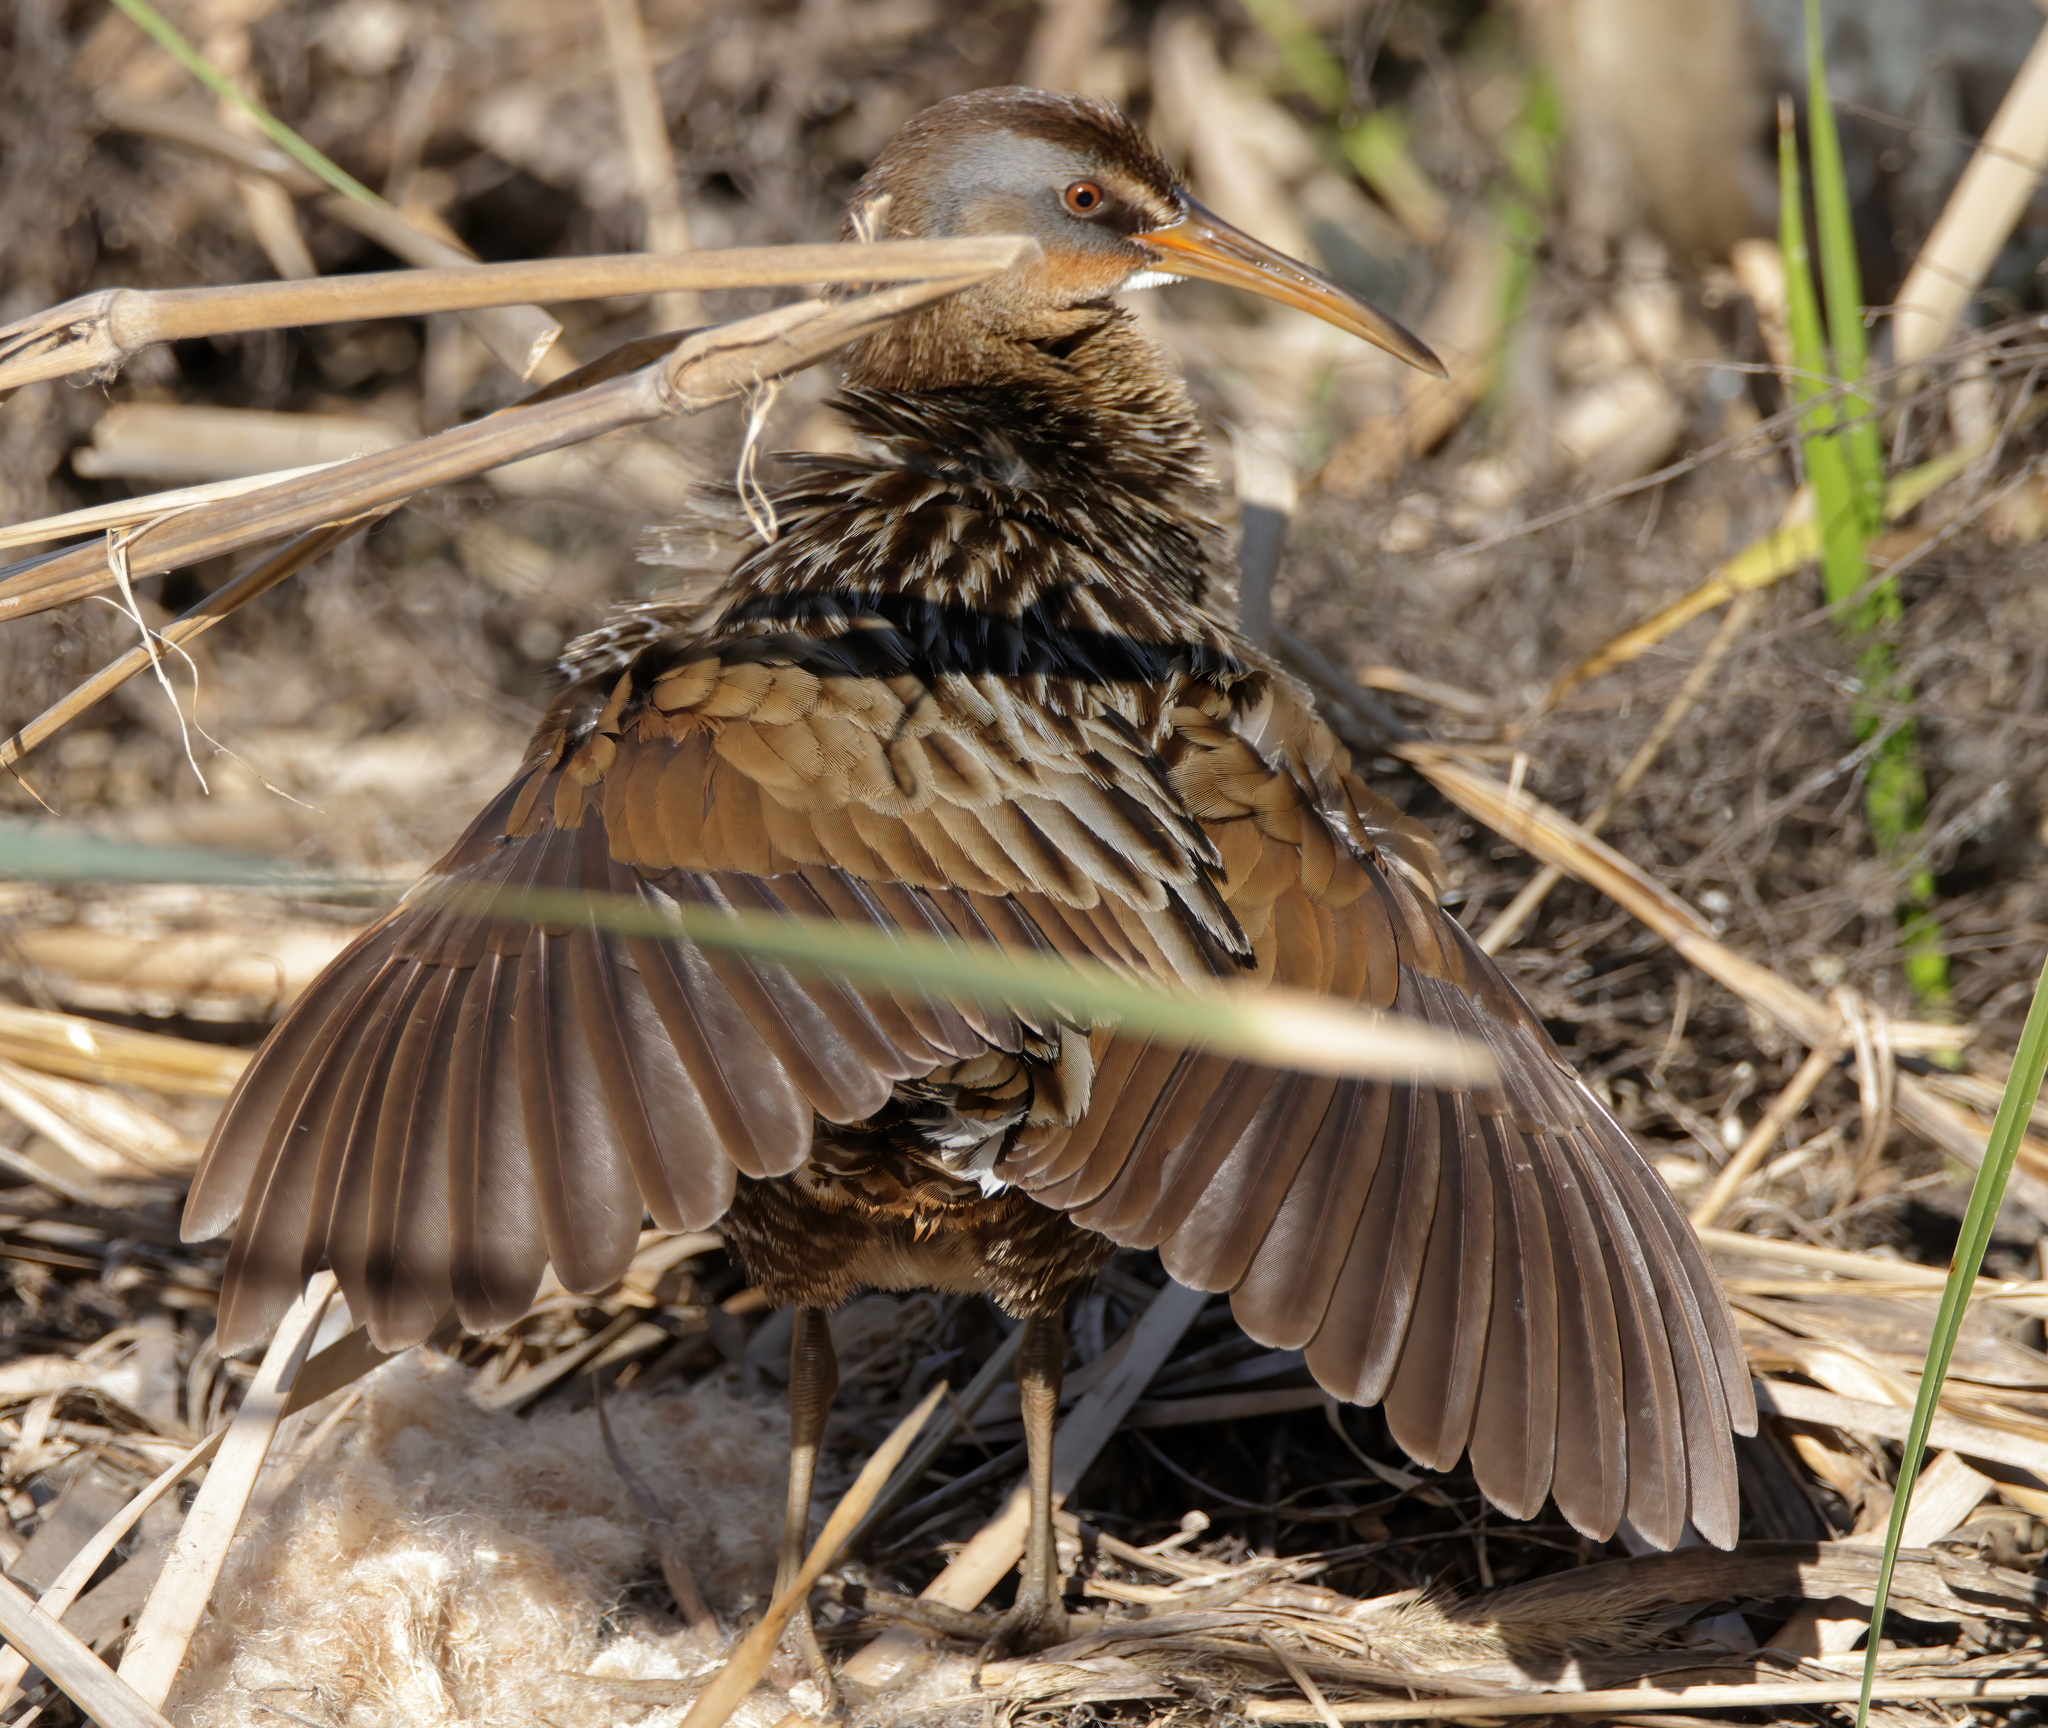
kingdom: Animalia
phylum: Chordata
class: Aves
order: Gruiformes
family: Rallidae
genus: Rallus
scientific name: Rallus crepitans
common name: Clapper rail
